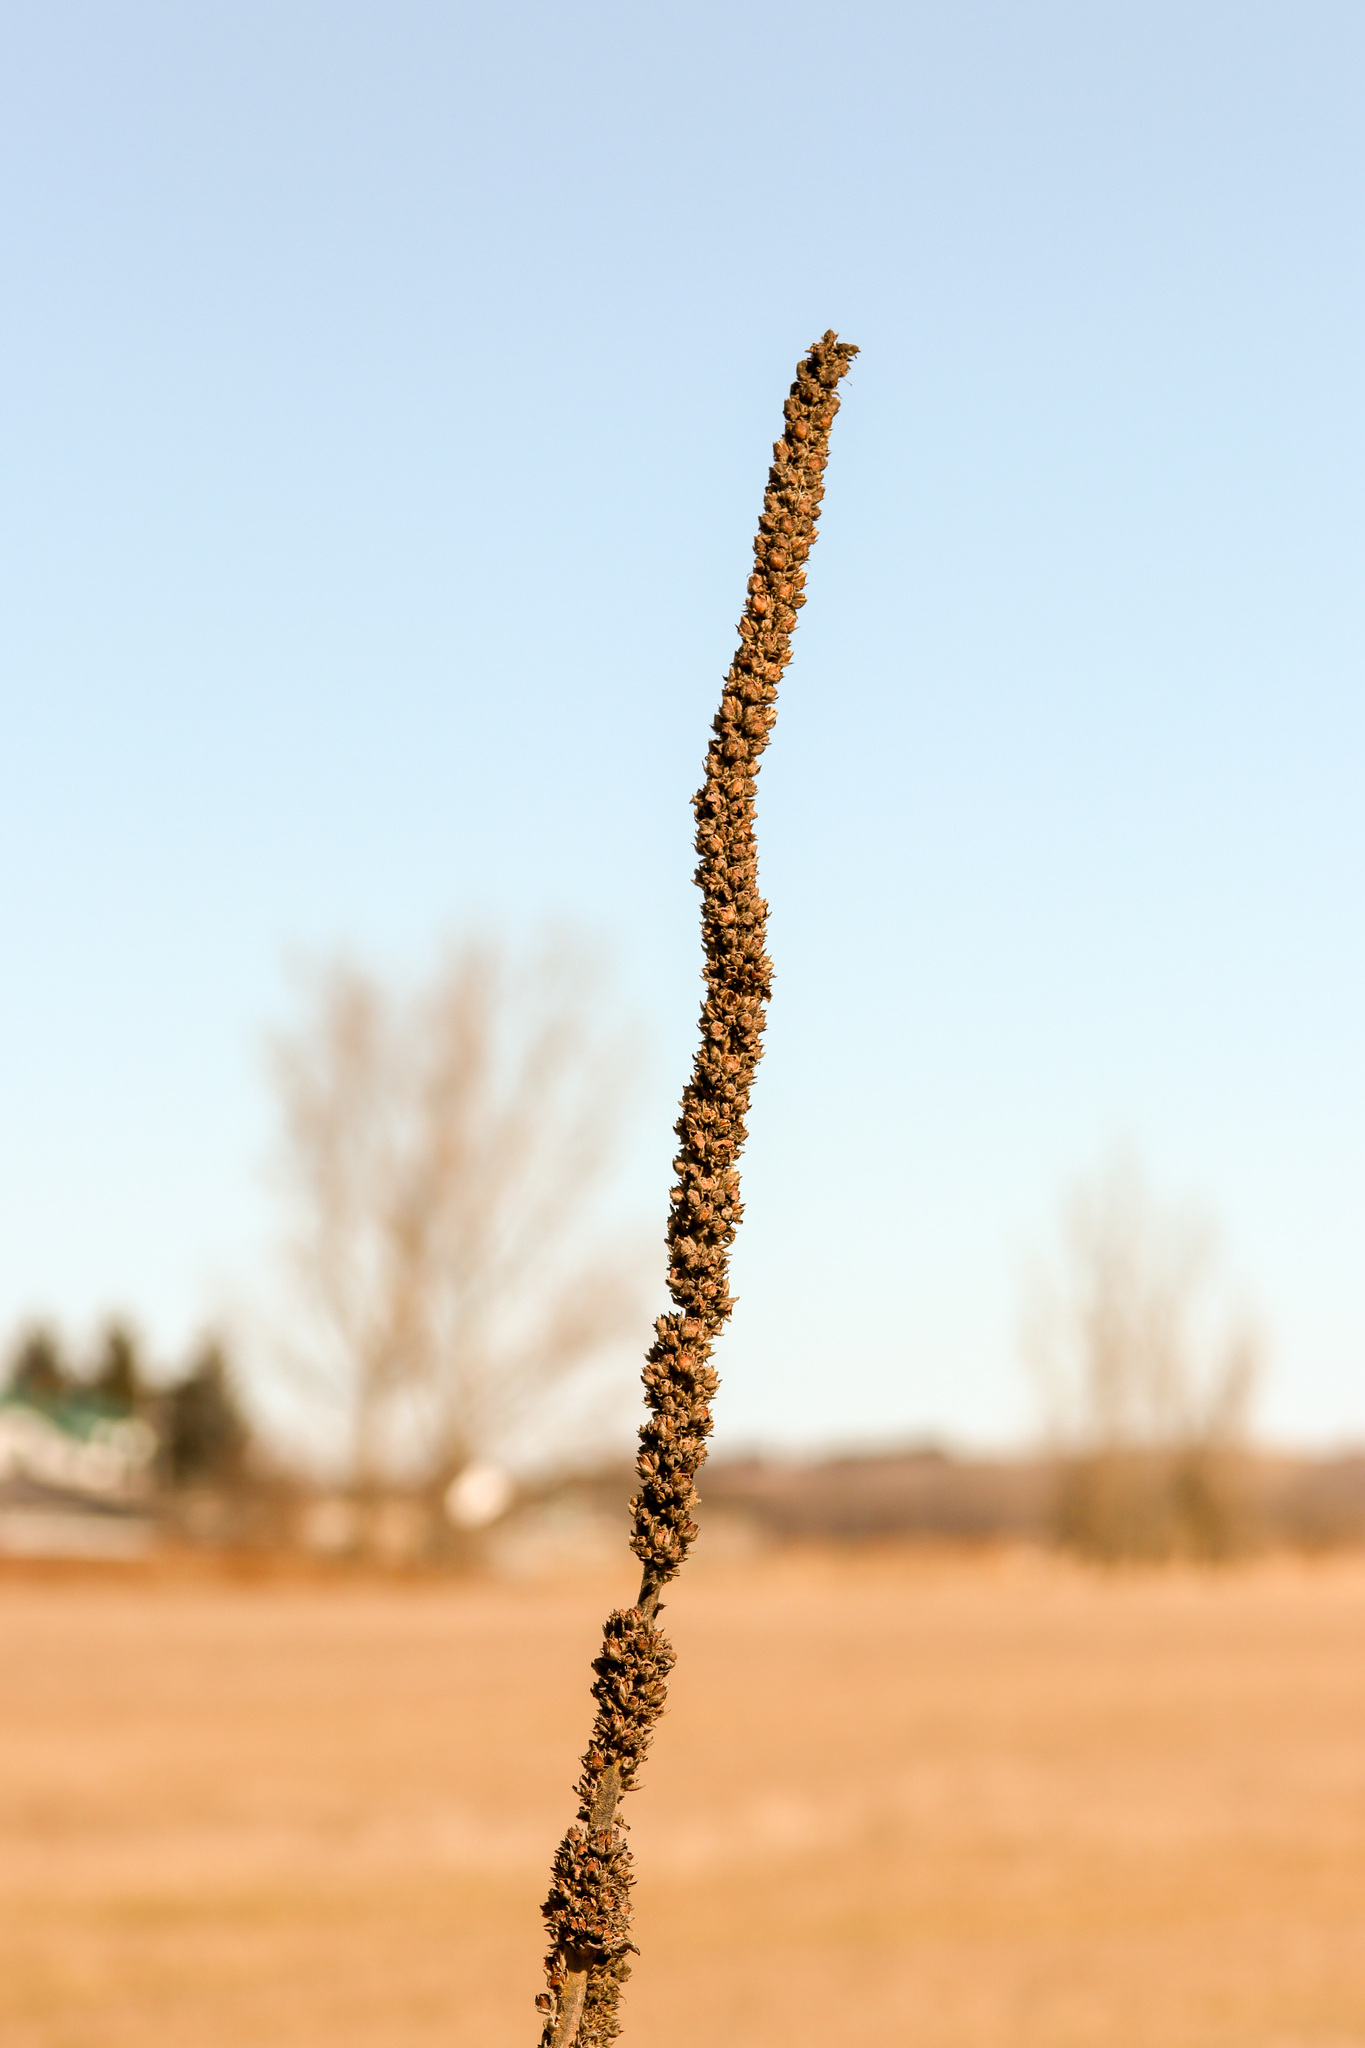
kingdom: Plantae
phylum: Tracheophyta
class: Magnoliopsida
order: Lamiales
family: Scrophulariaceae
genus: Verbascum
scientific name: Verbascum thapsus
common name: Common mullein
